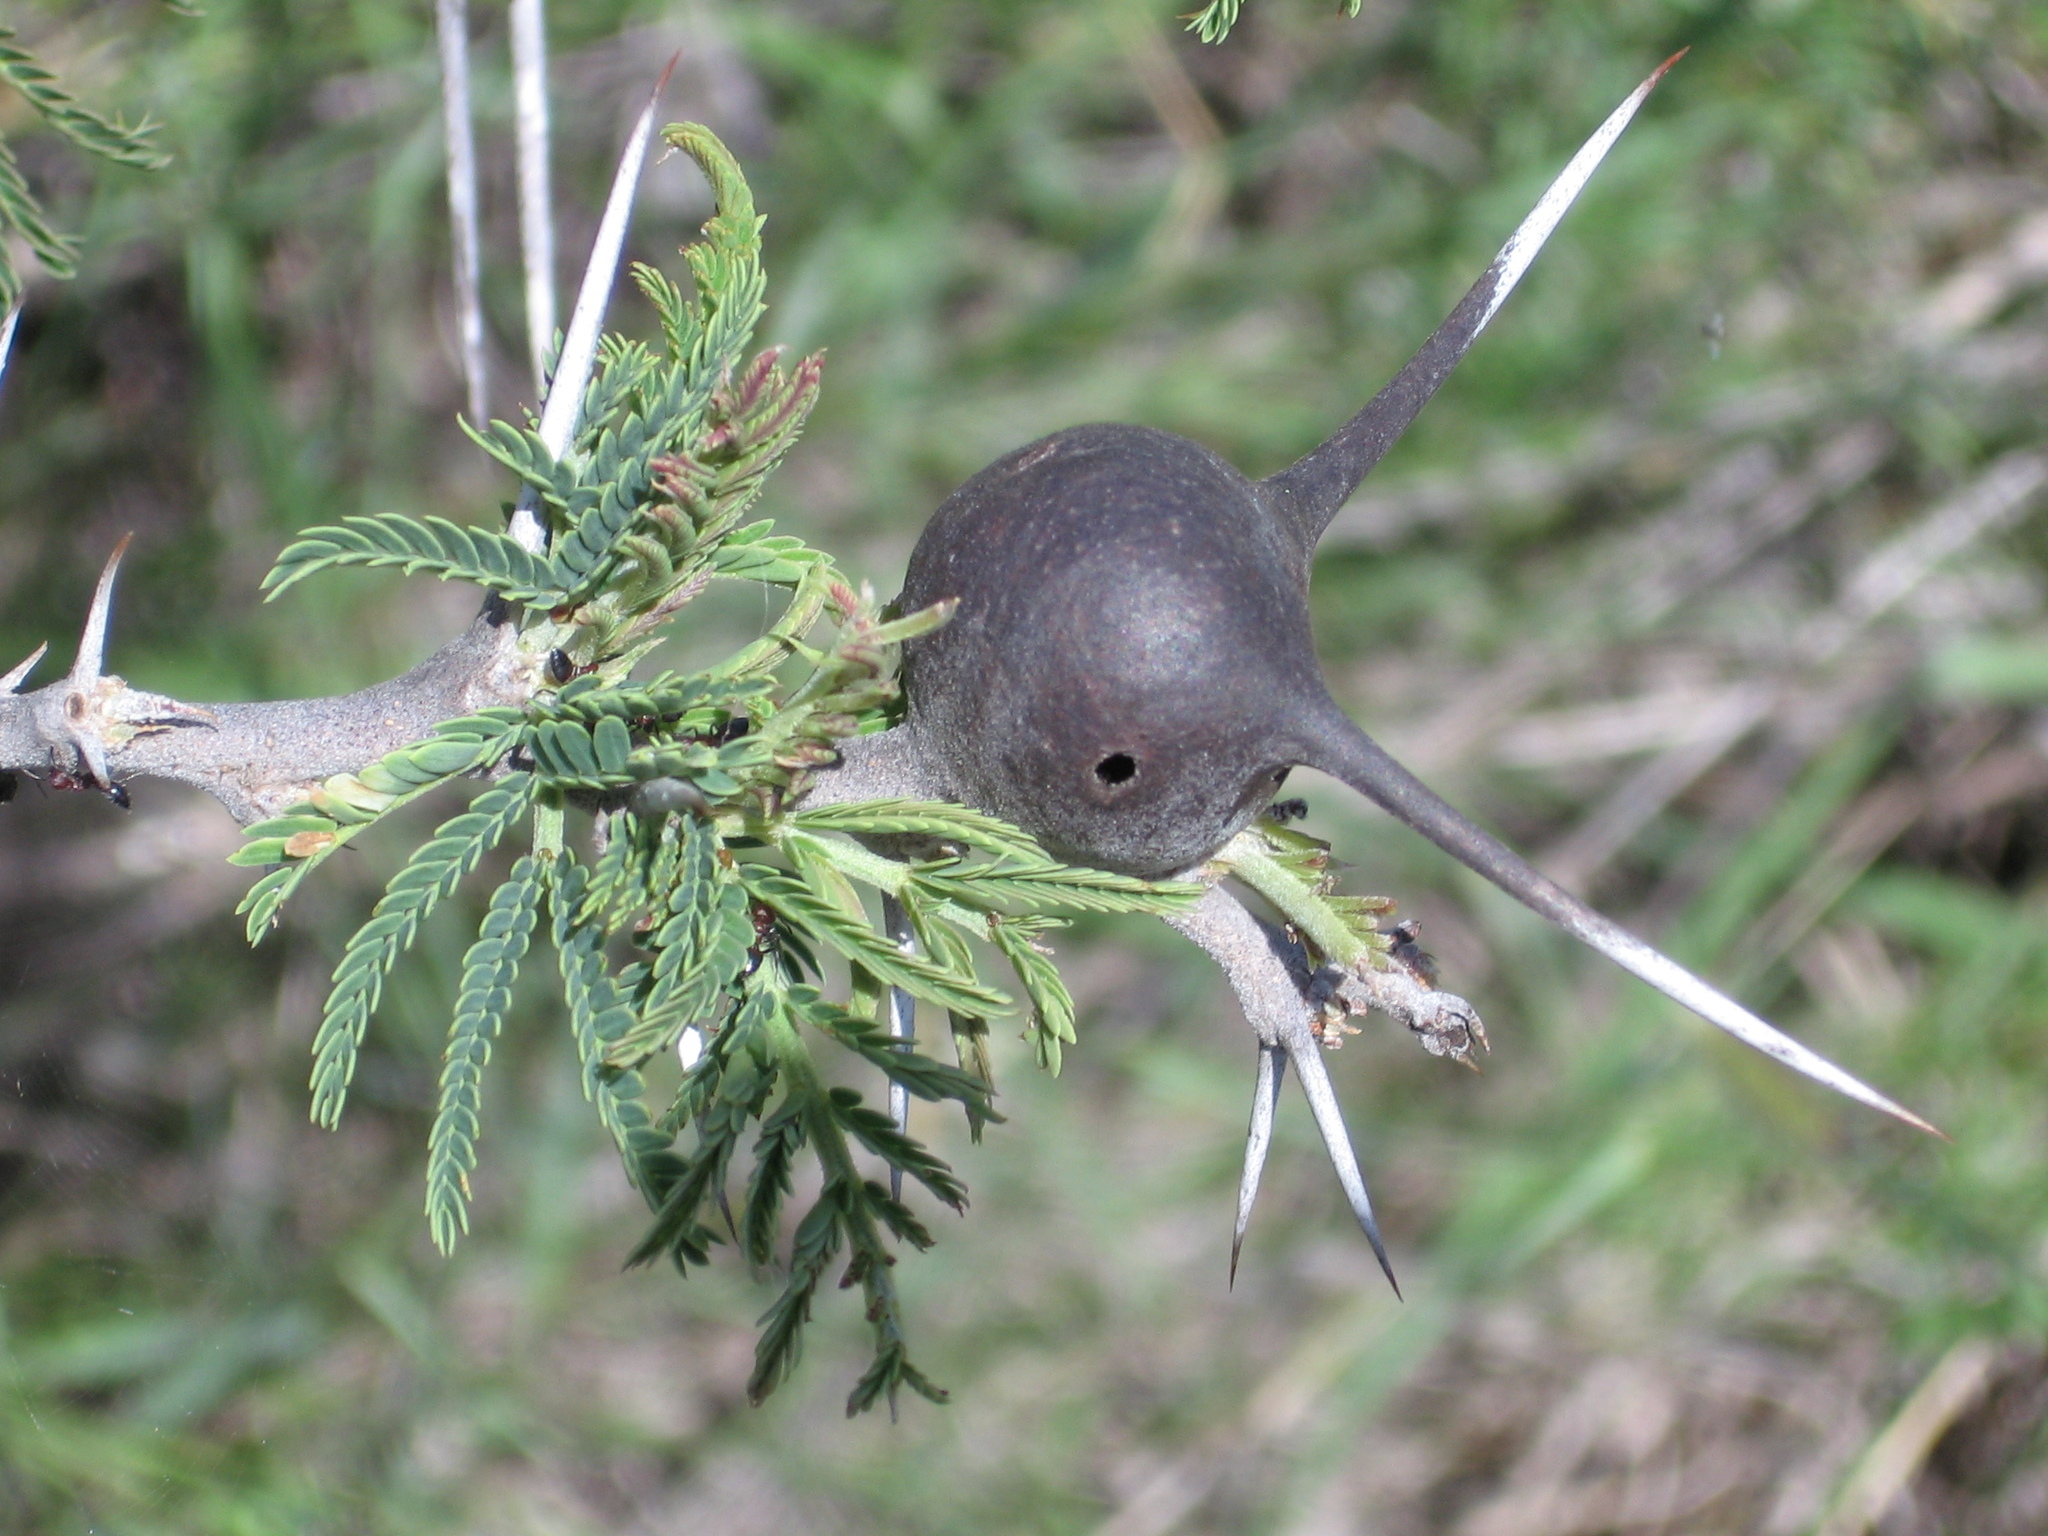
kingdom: Plantae
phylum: Tracheophyta
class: Magnoliopsida
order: Fabales
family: Fabaceae
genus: Vachellia
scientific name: Vachellia drepanolobium
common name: Whistling thorn
